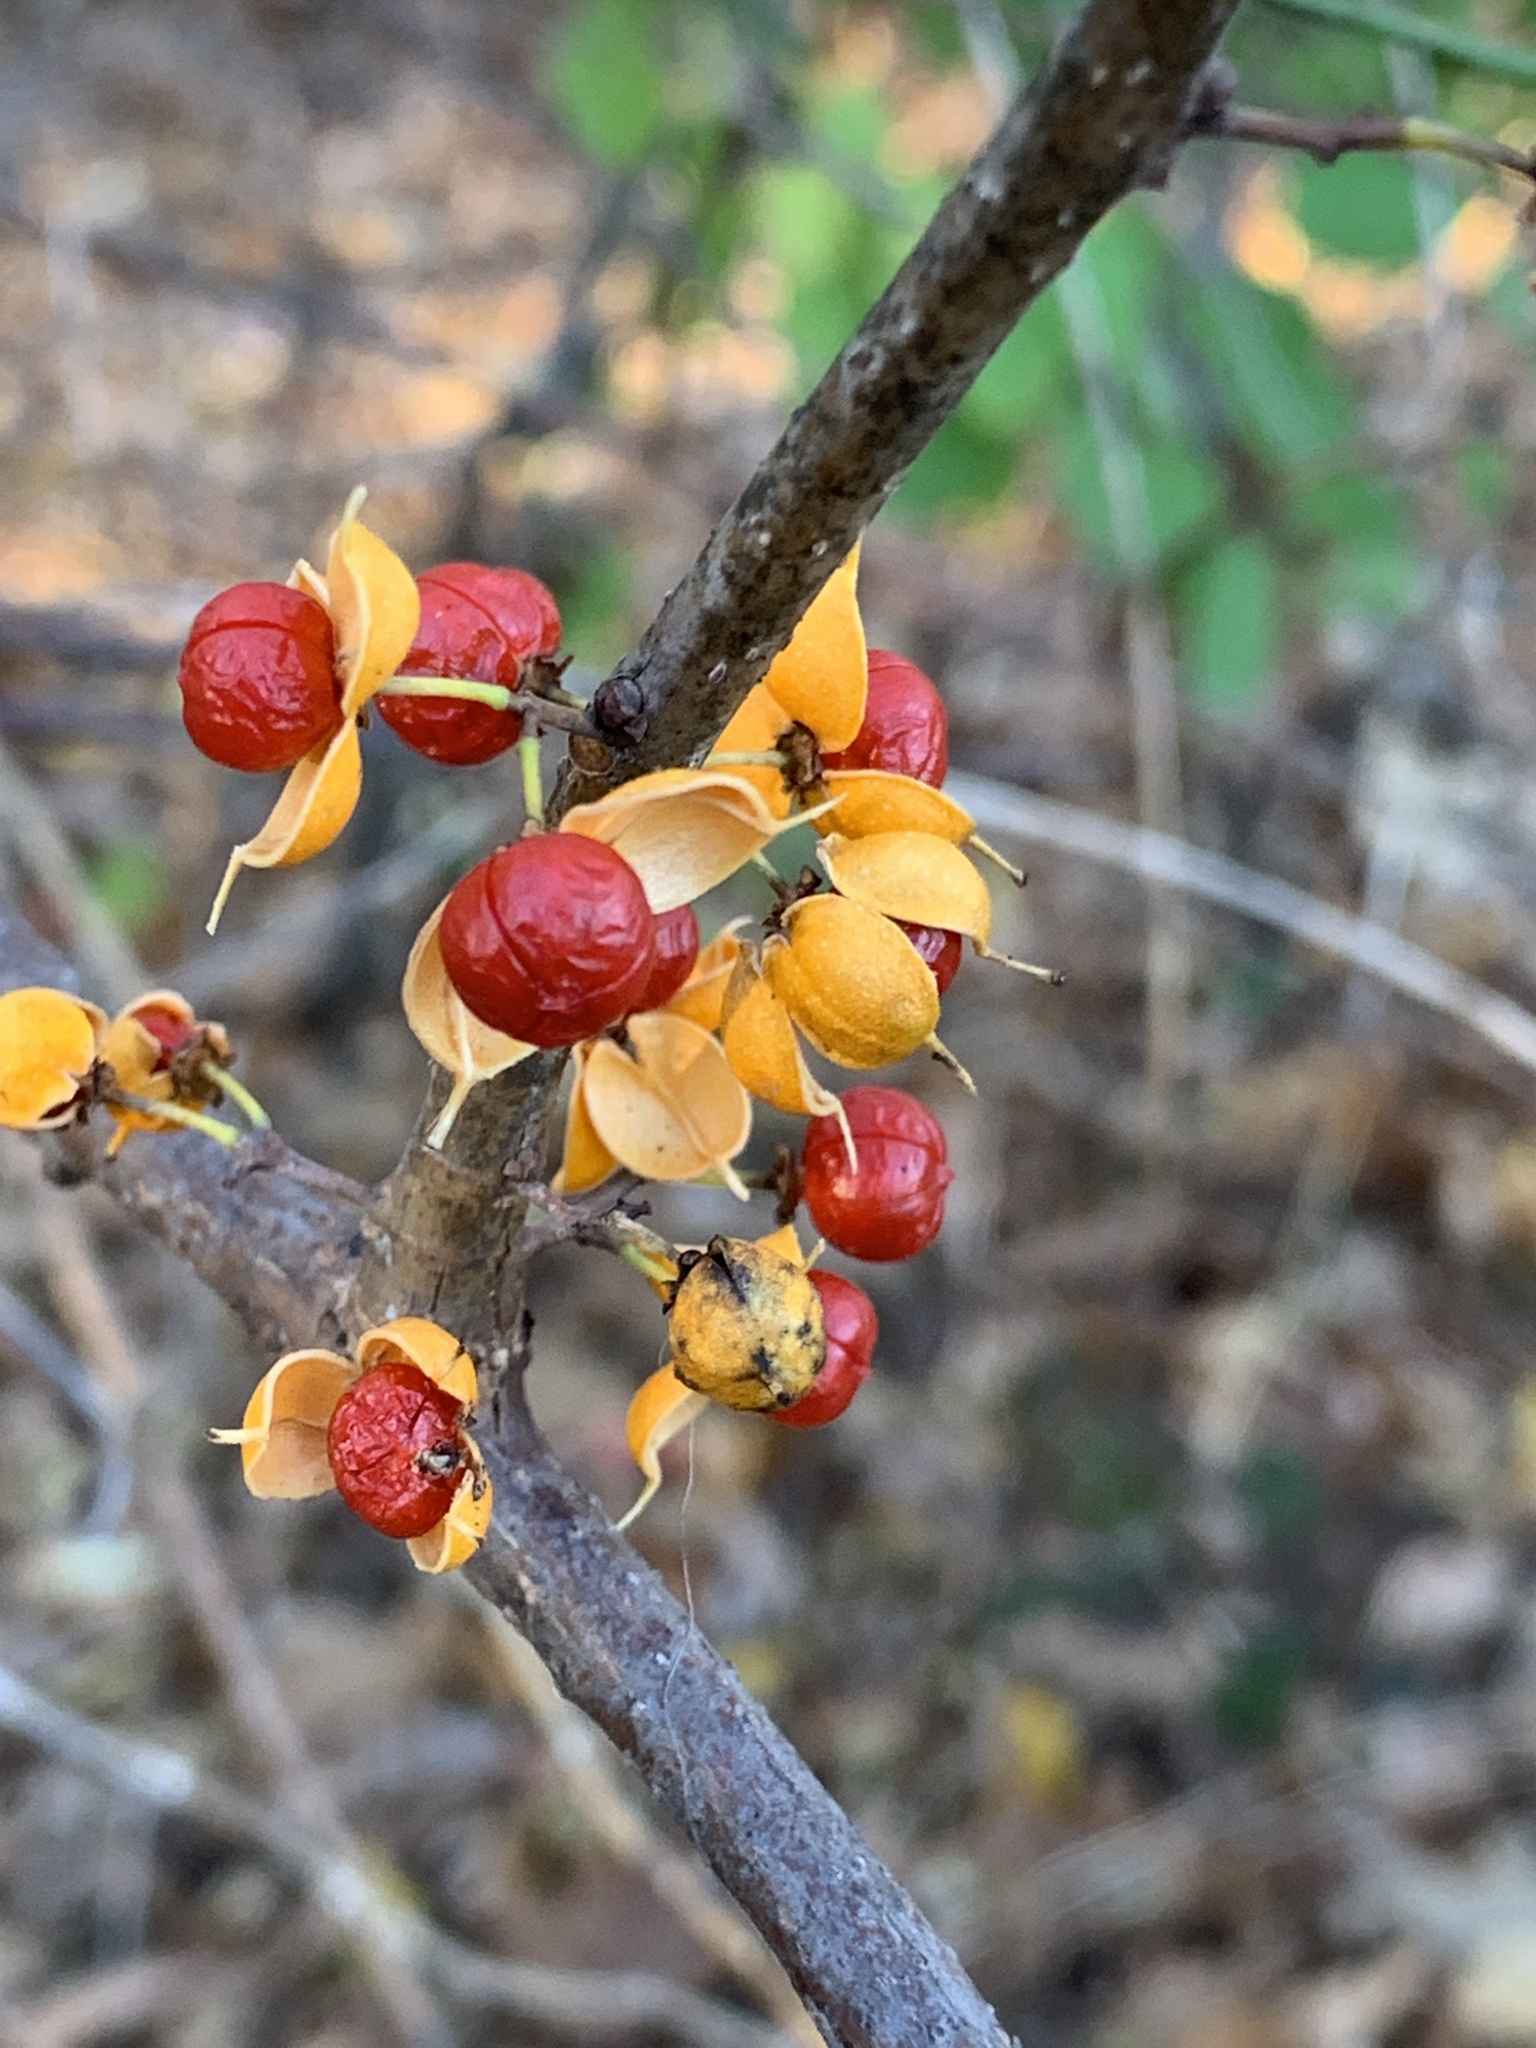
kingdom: Plantae
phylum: Tracheophyta
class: Magnoliopsida
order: Celastrales
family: Celastraceae
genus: Celastrus
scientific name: Celastrus orbiculatus
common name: Oriental bittersweet
